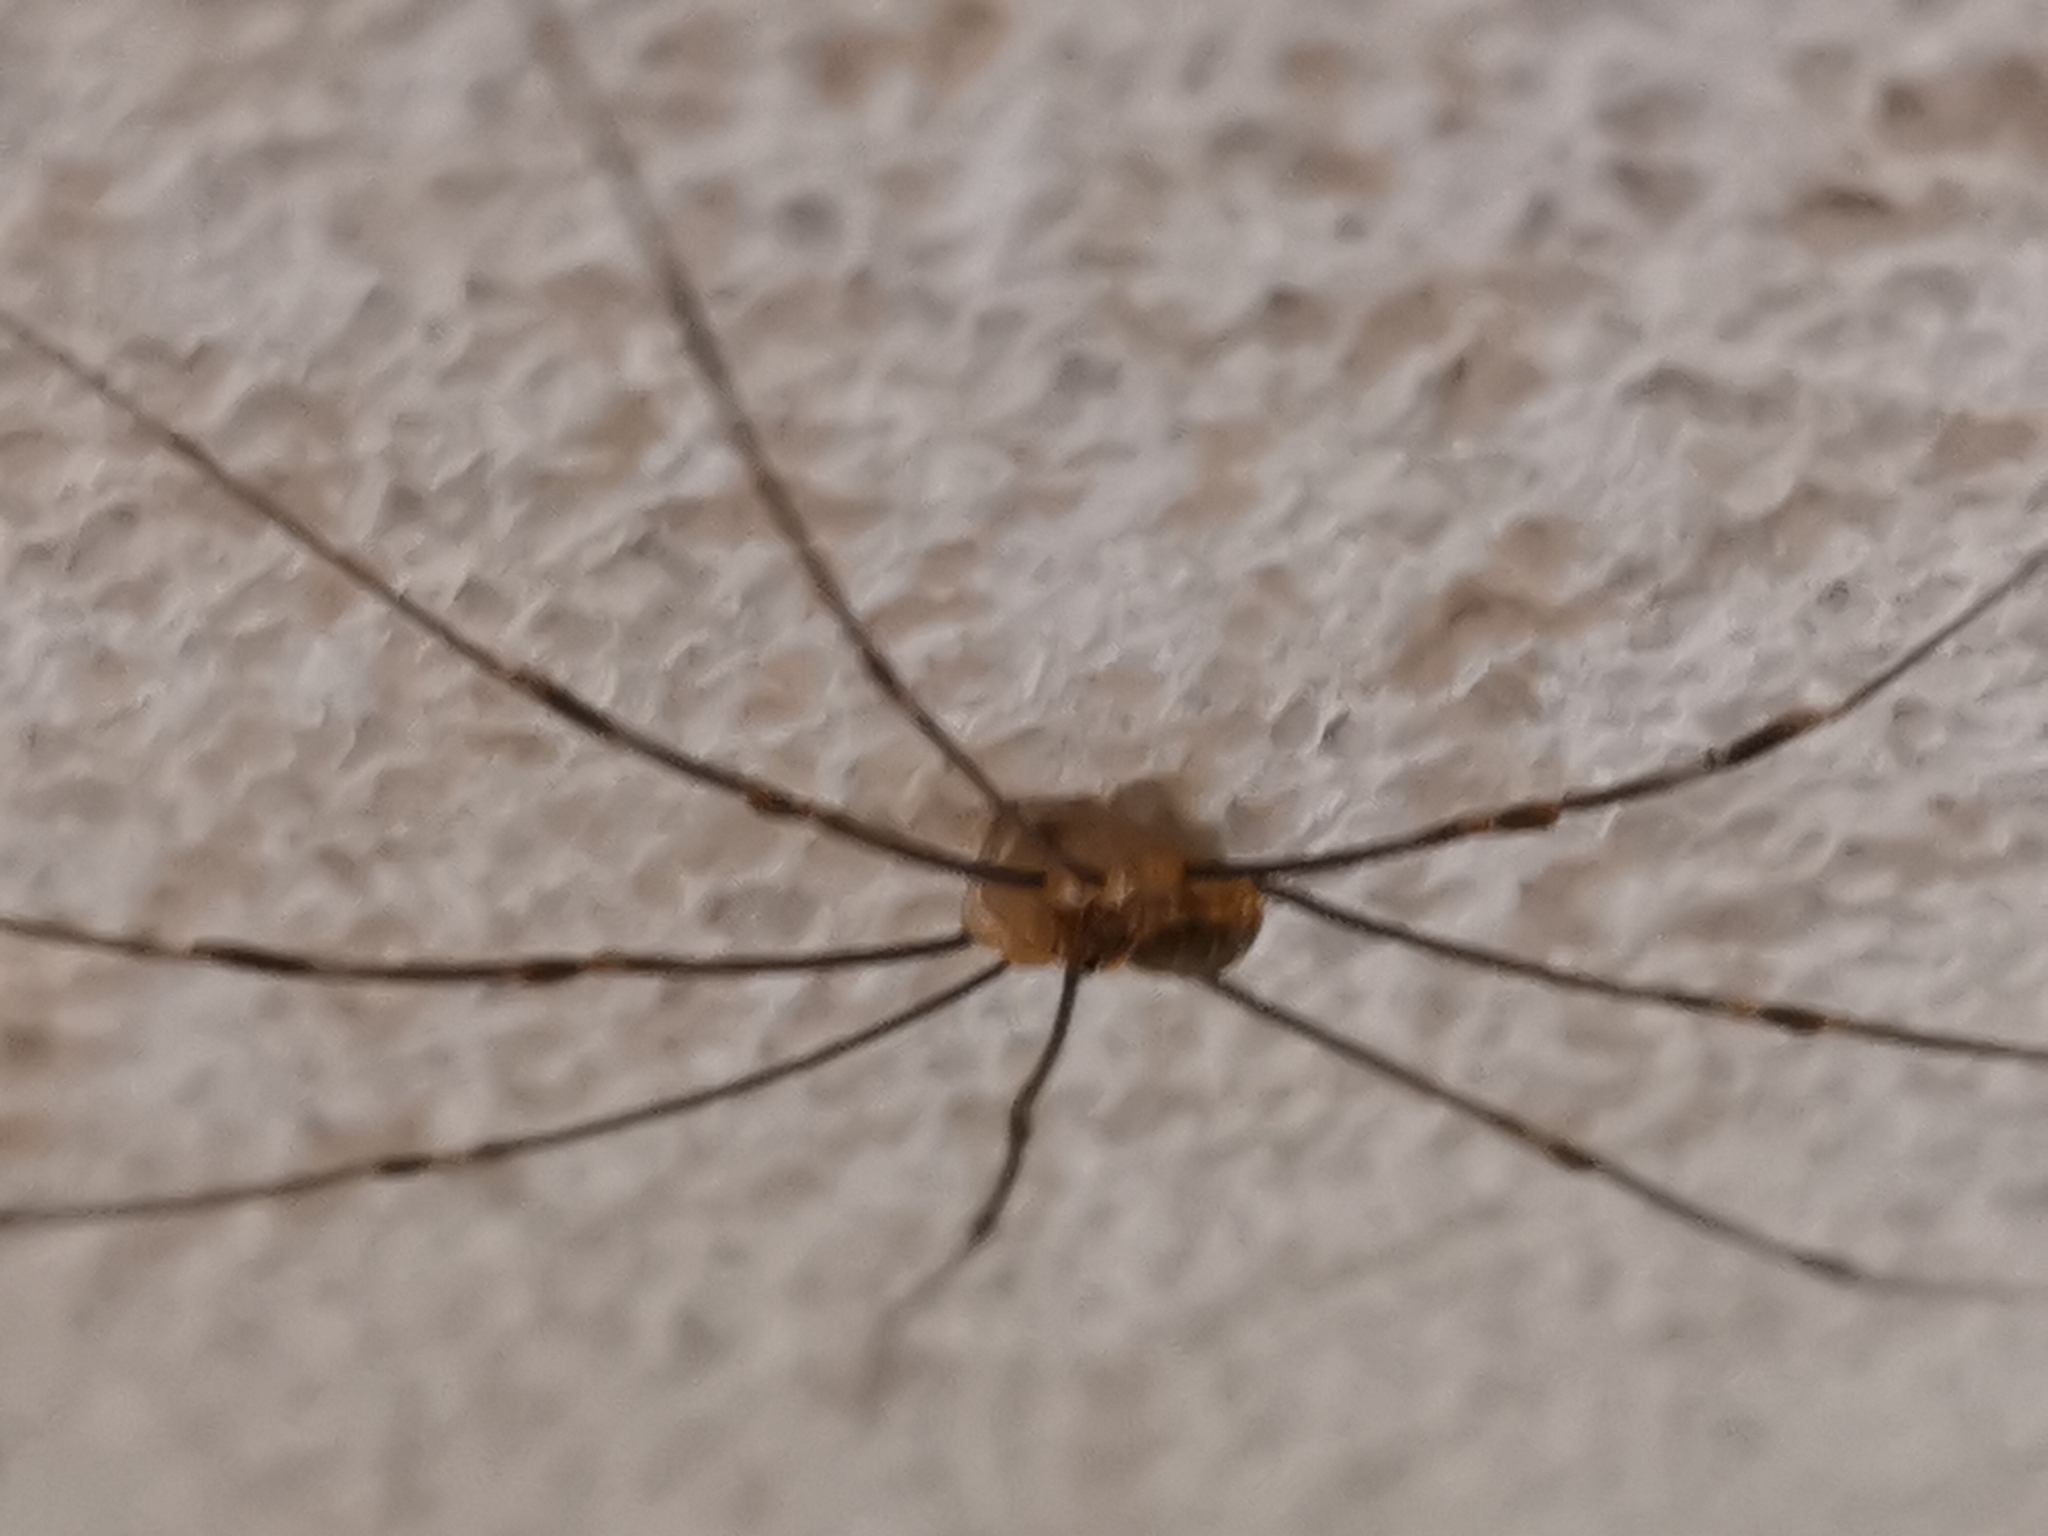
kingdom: Animalia
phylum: Arthropoda
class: Arachnida
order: Opiliones
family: Phalangiidae
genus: Opilio
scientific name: Opilio canestrinii
